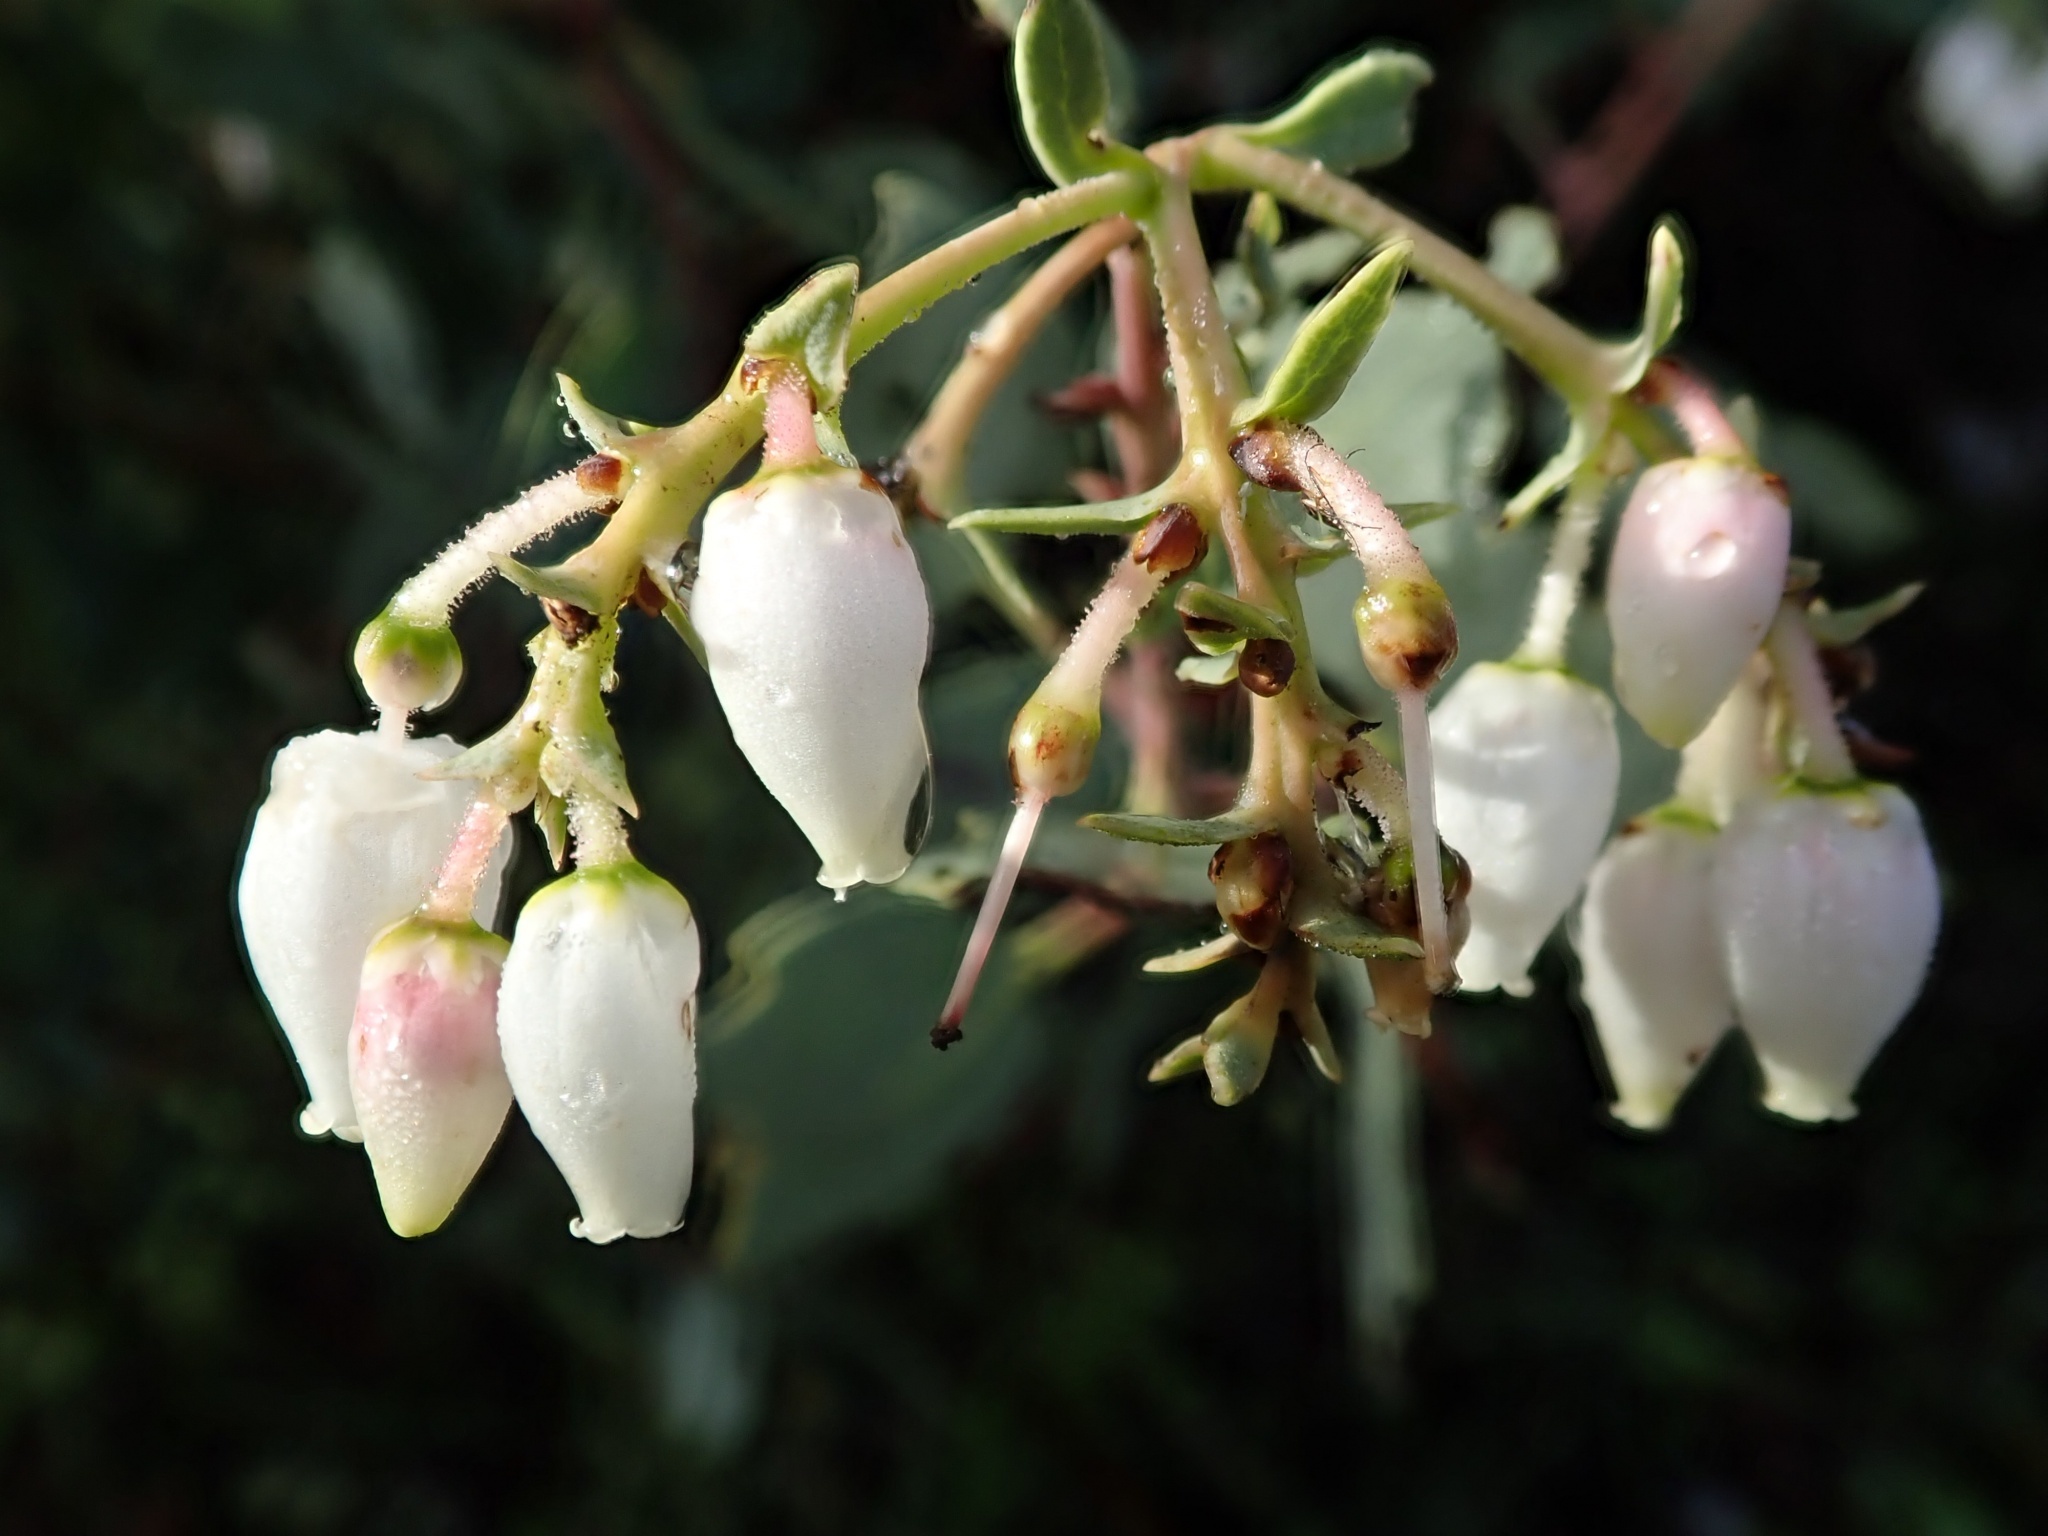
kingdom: Plantae
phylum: Tracheophyta
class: Magnoliopsida
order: Ericales
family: Ericaceae
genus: Arctostaphylos
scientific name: Arctostaphylos glauca
